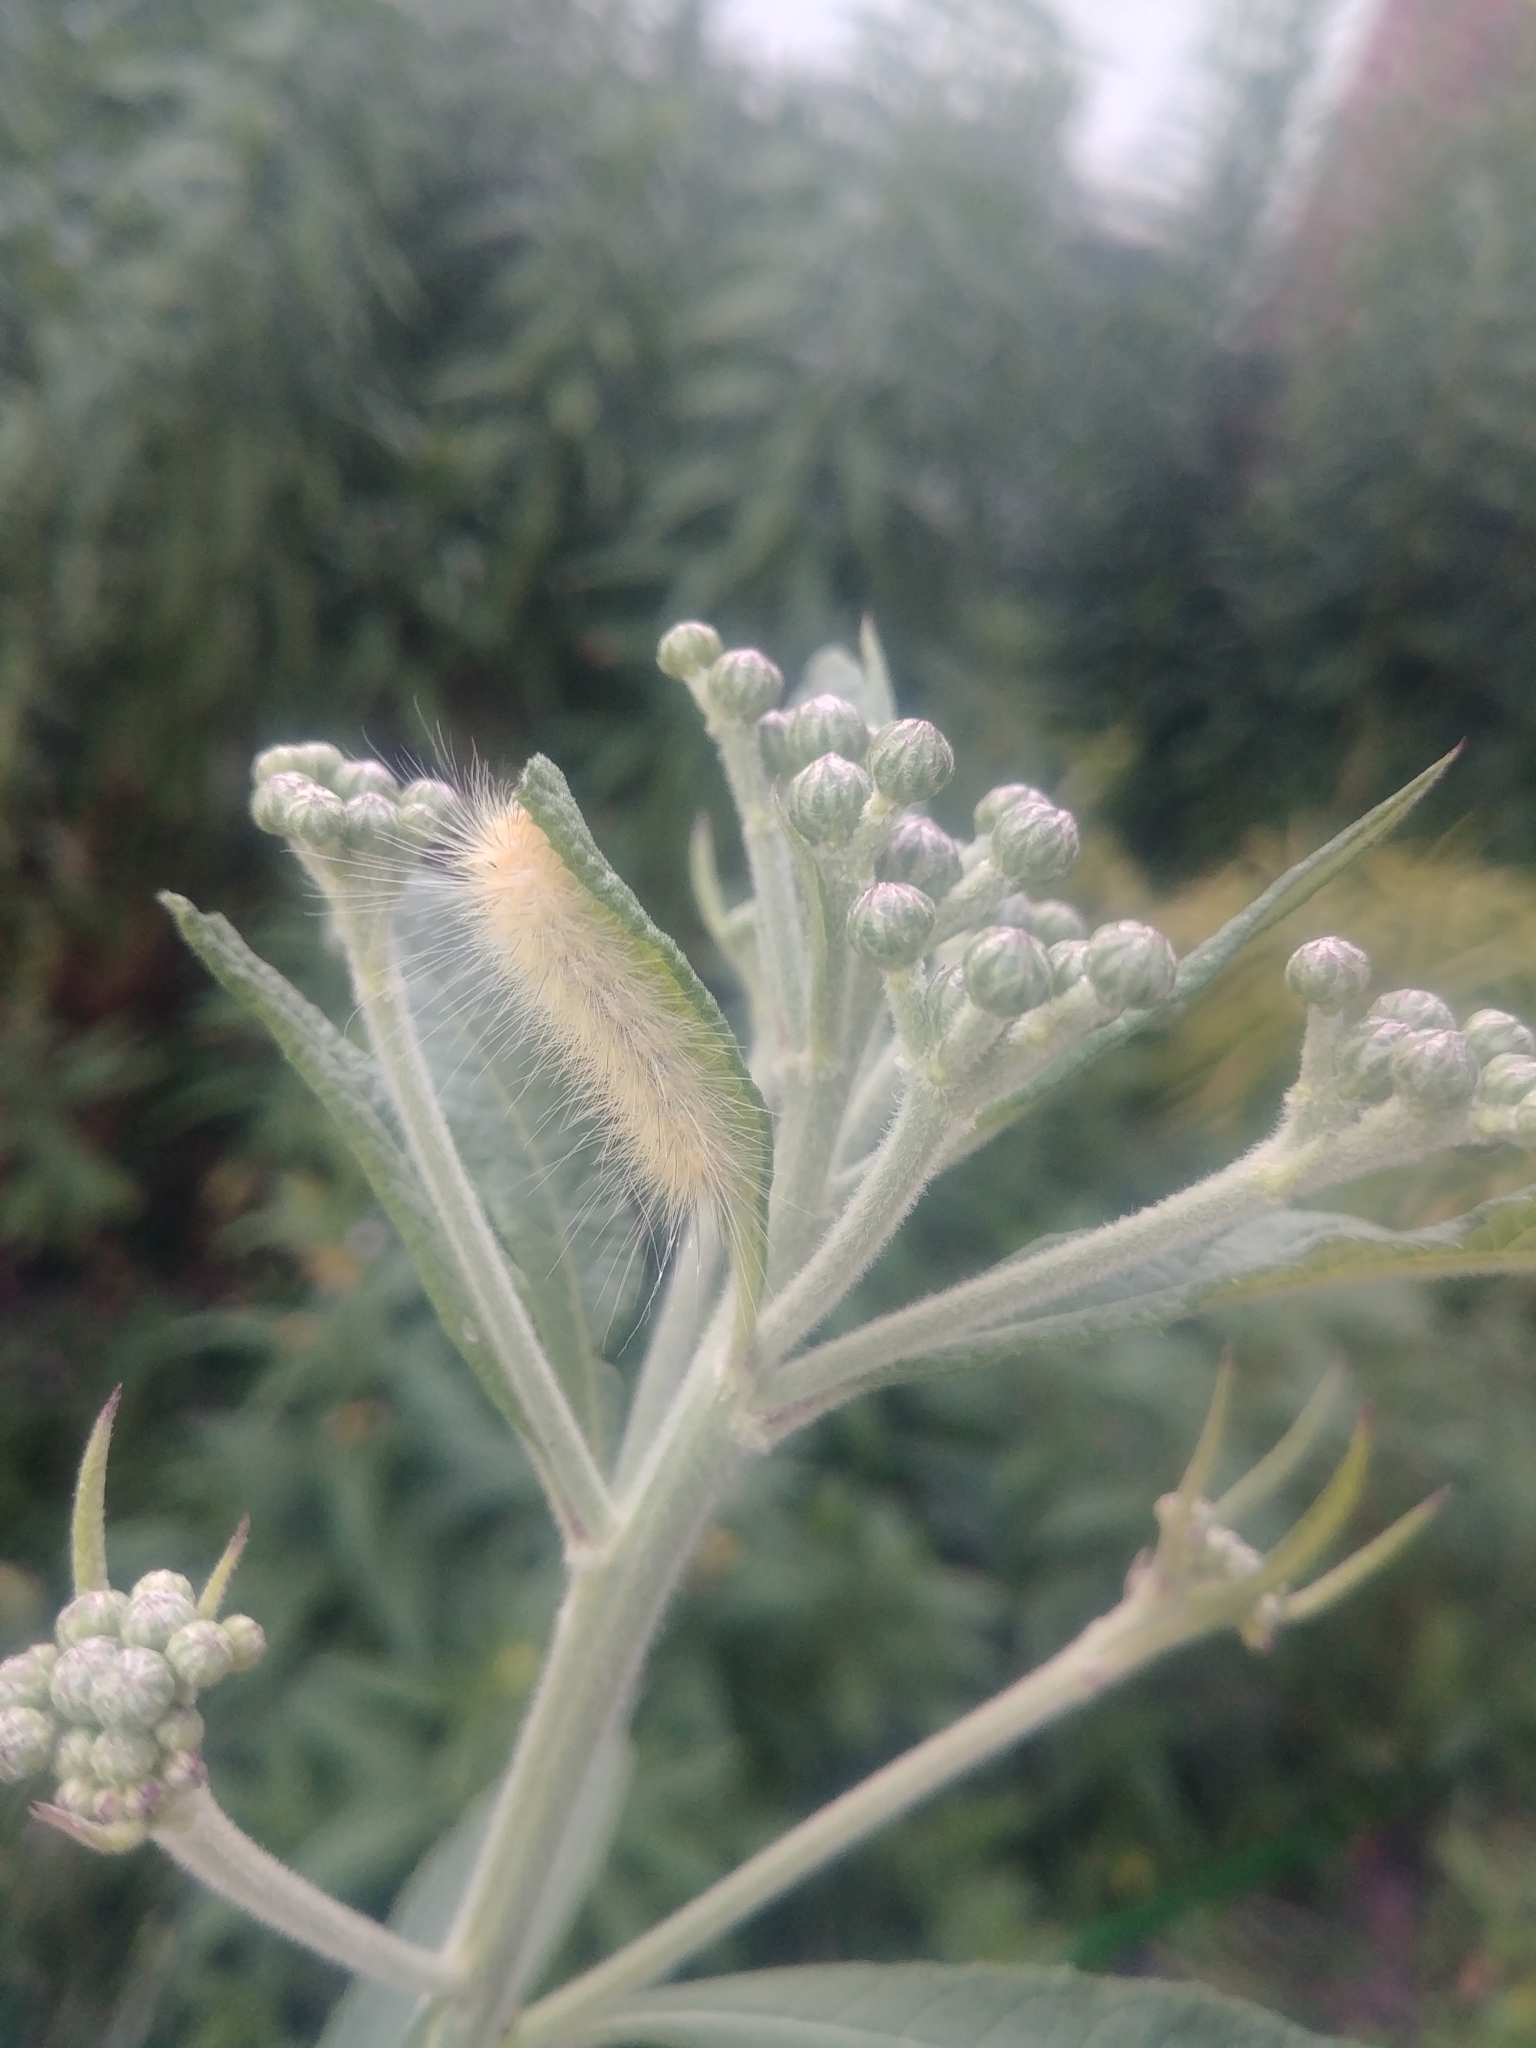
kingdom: Animalia
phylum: Arthropoda
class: Insecta
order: Lepidoptera
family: Erebidae
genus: Spilosoma
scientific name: Spilosoma virginica
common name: Virginia tiger moth
